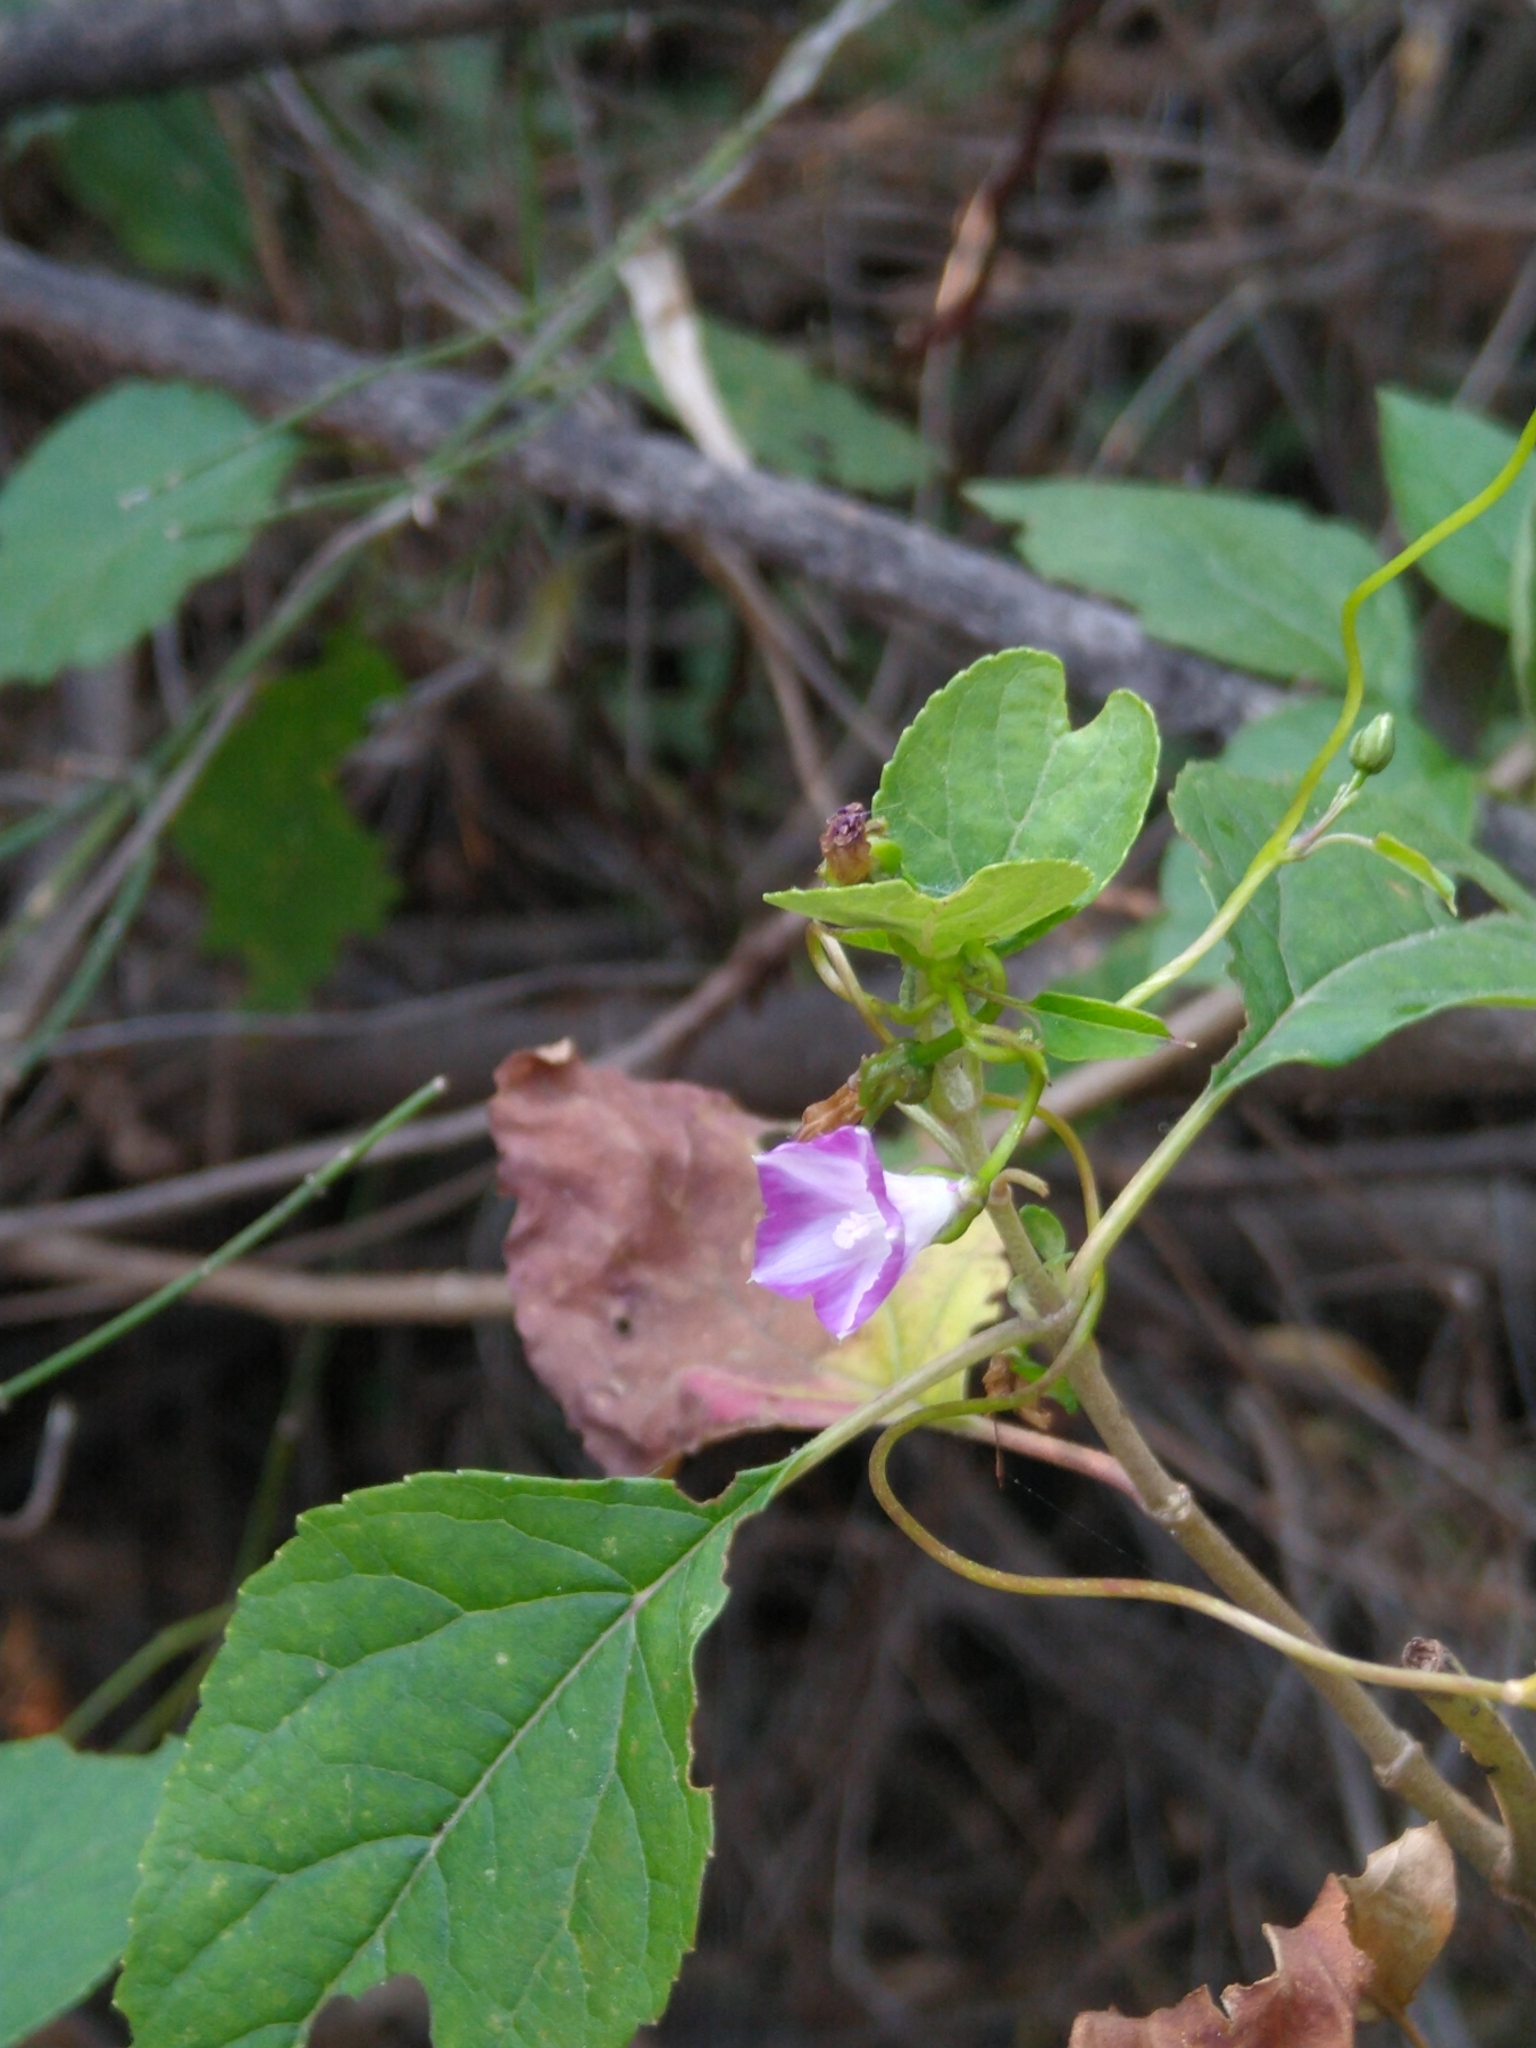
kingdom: Plantae
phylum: Tracheophyta
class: Magnoliopsida
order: Solanales
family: Convolvulaceae
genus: Ipomoea
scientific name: Ipomoea dumetorum
